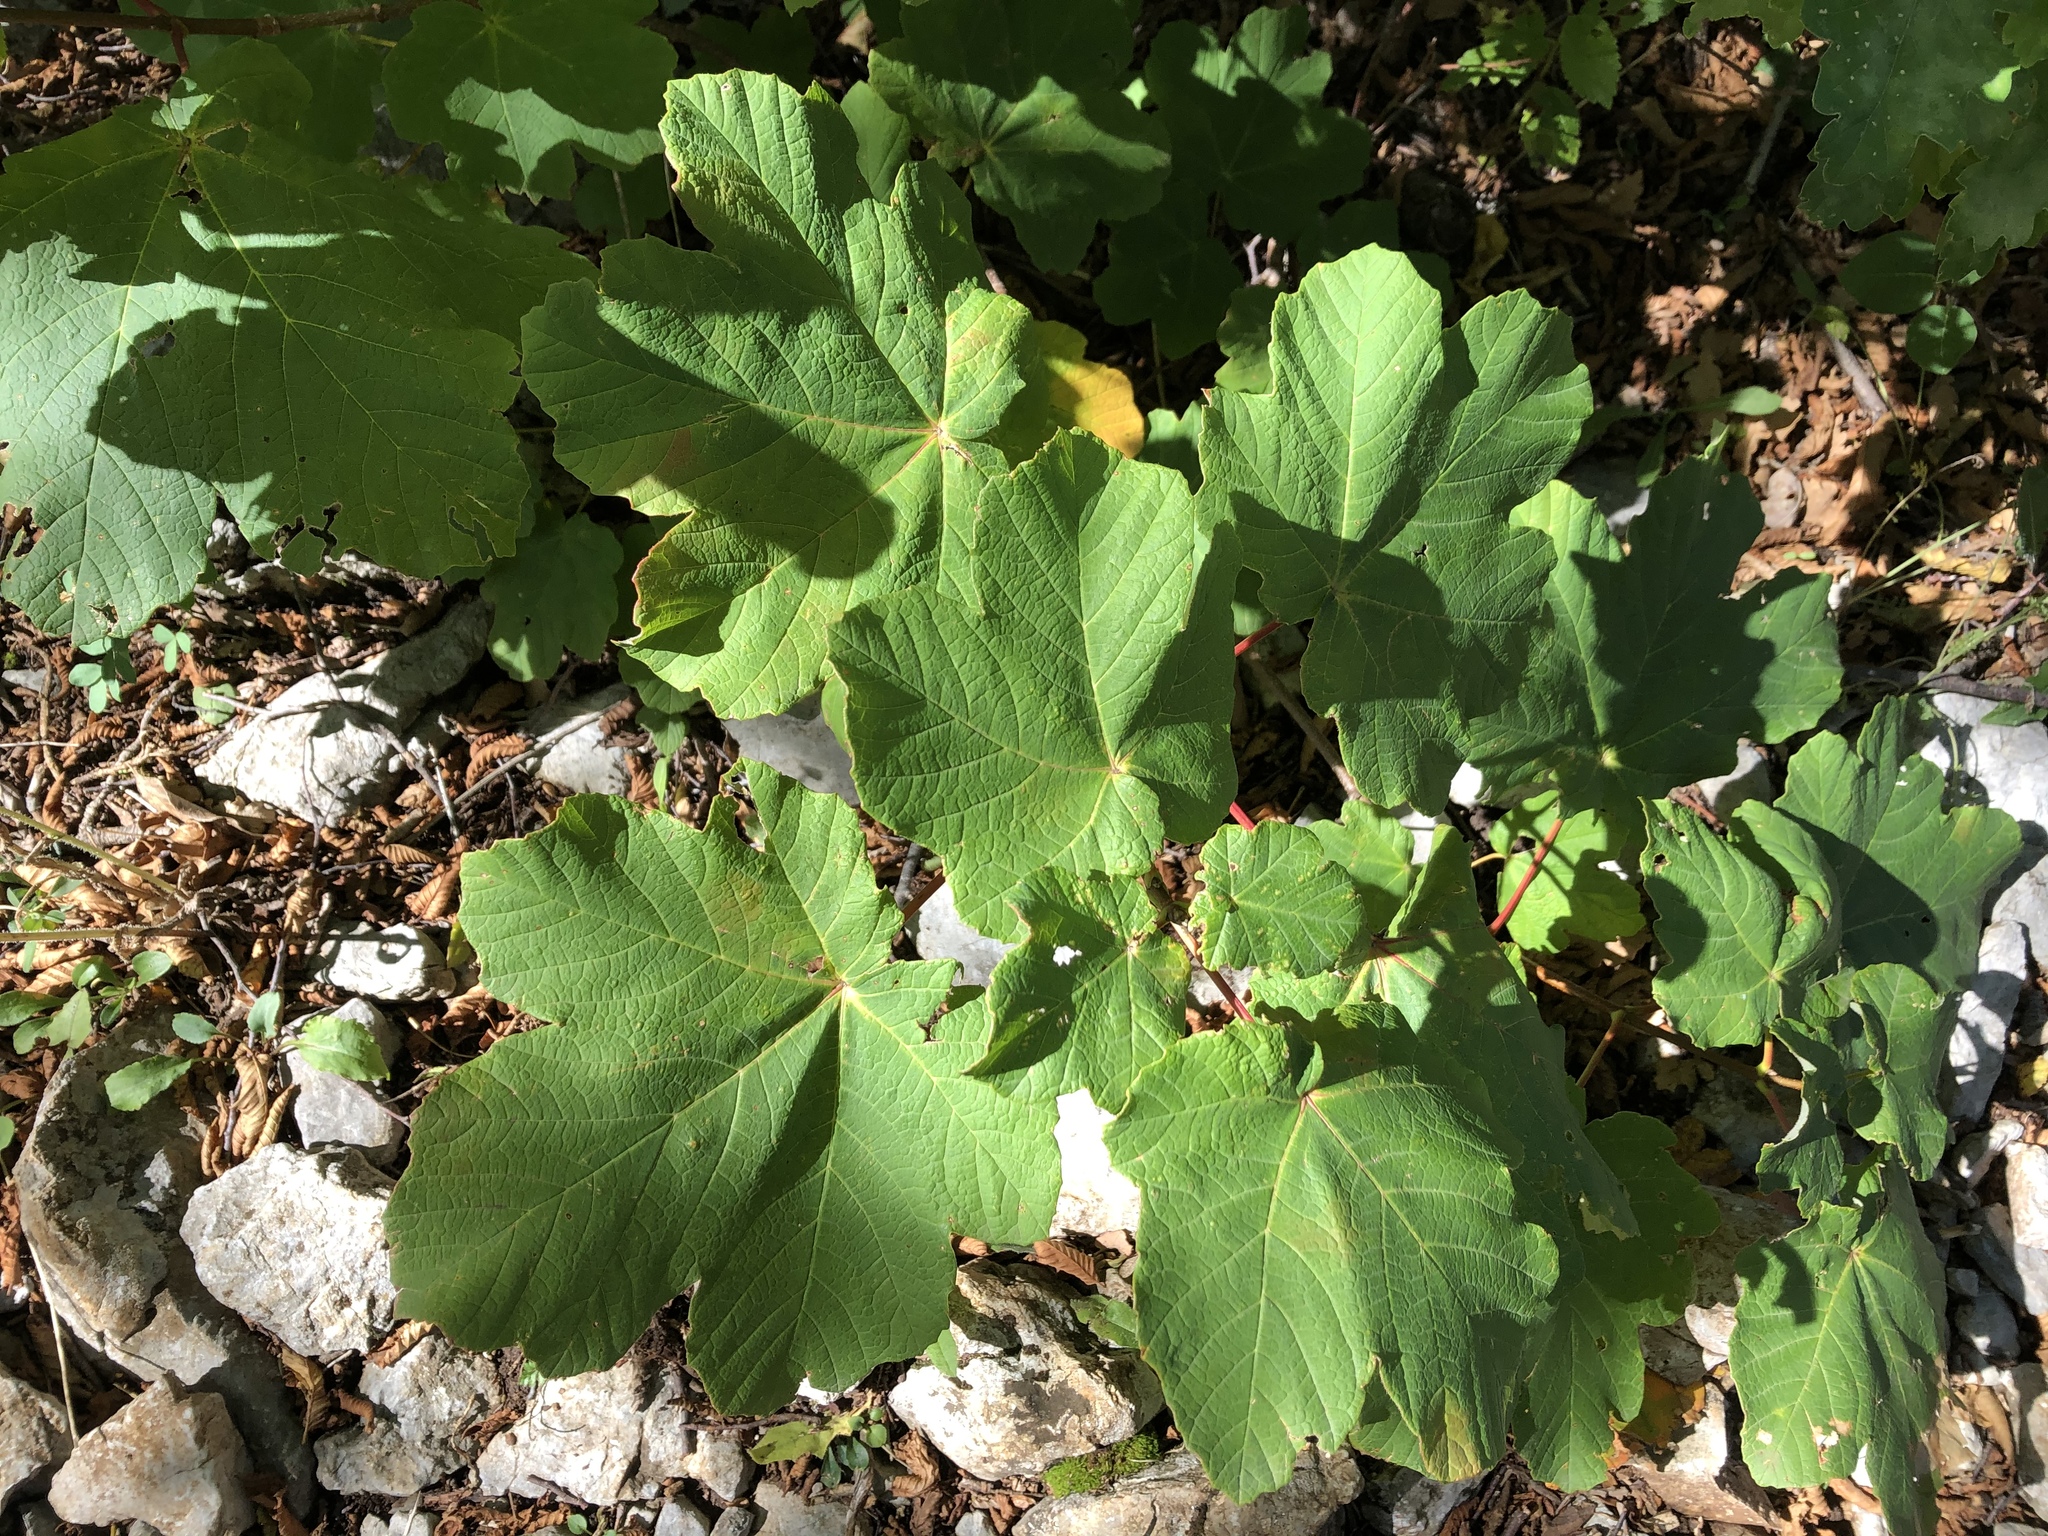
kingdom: Plantae
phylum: Tracheophyta
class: Magnoliopsida
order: Sapindales
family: Sapindaceae
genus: Acer
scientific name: Acer obtusatum
